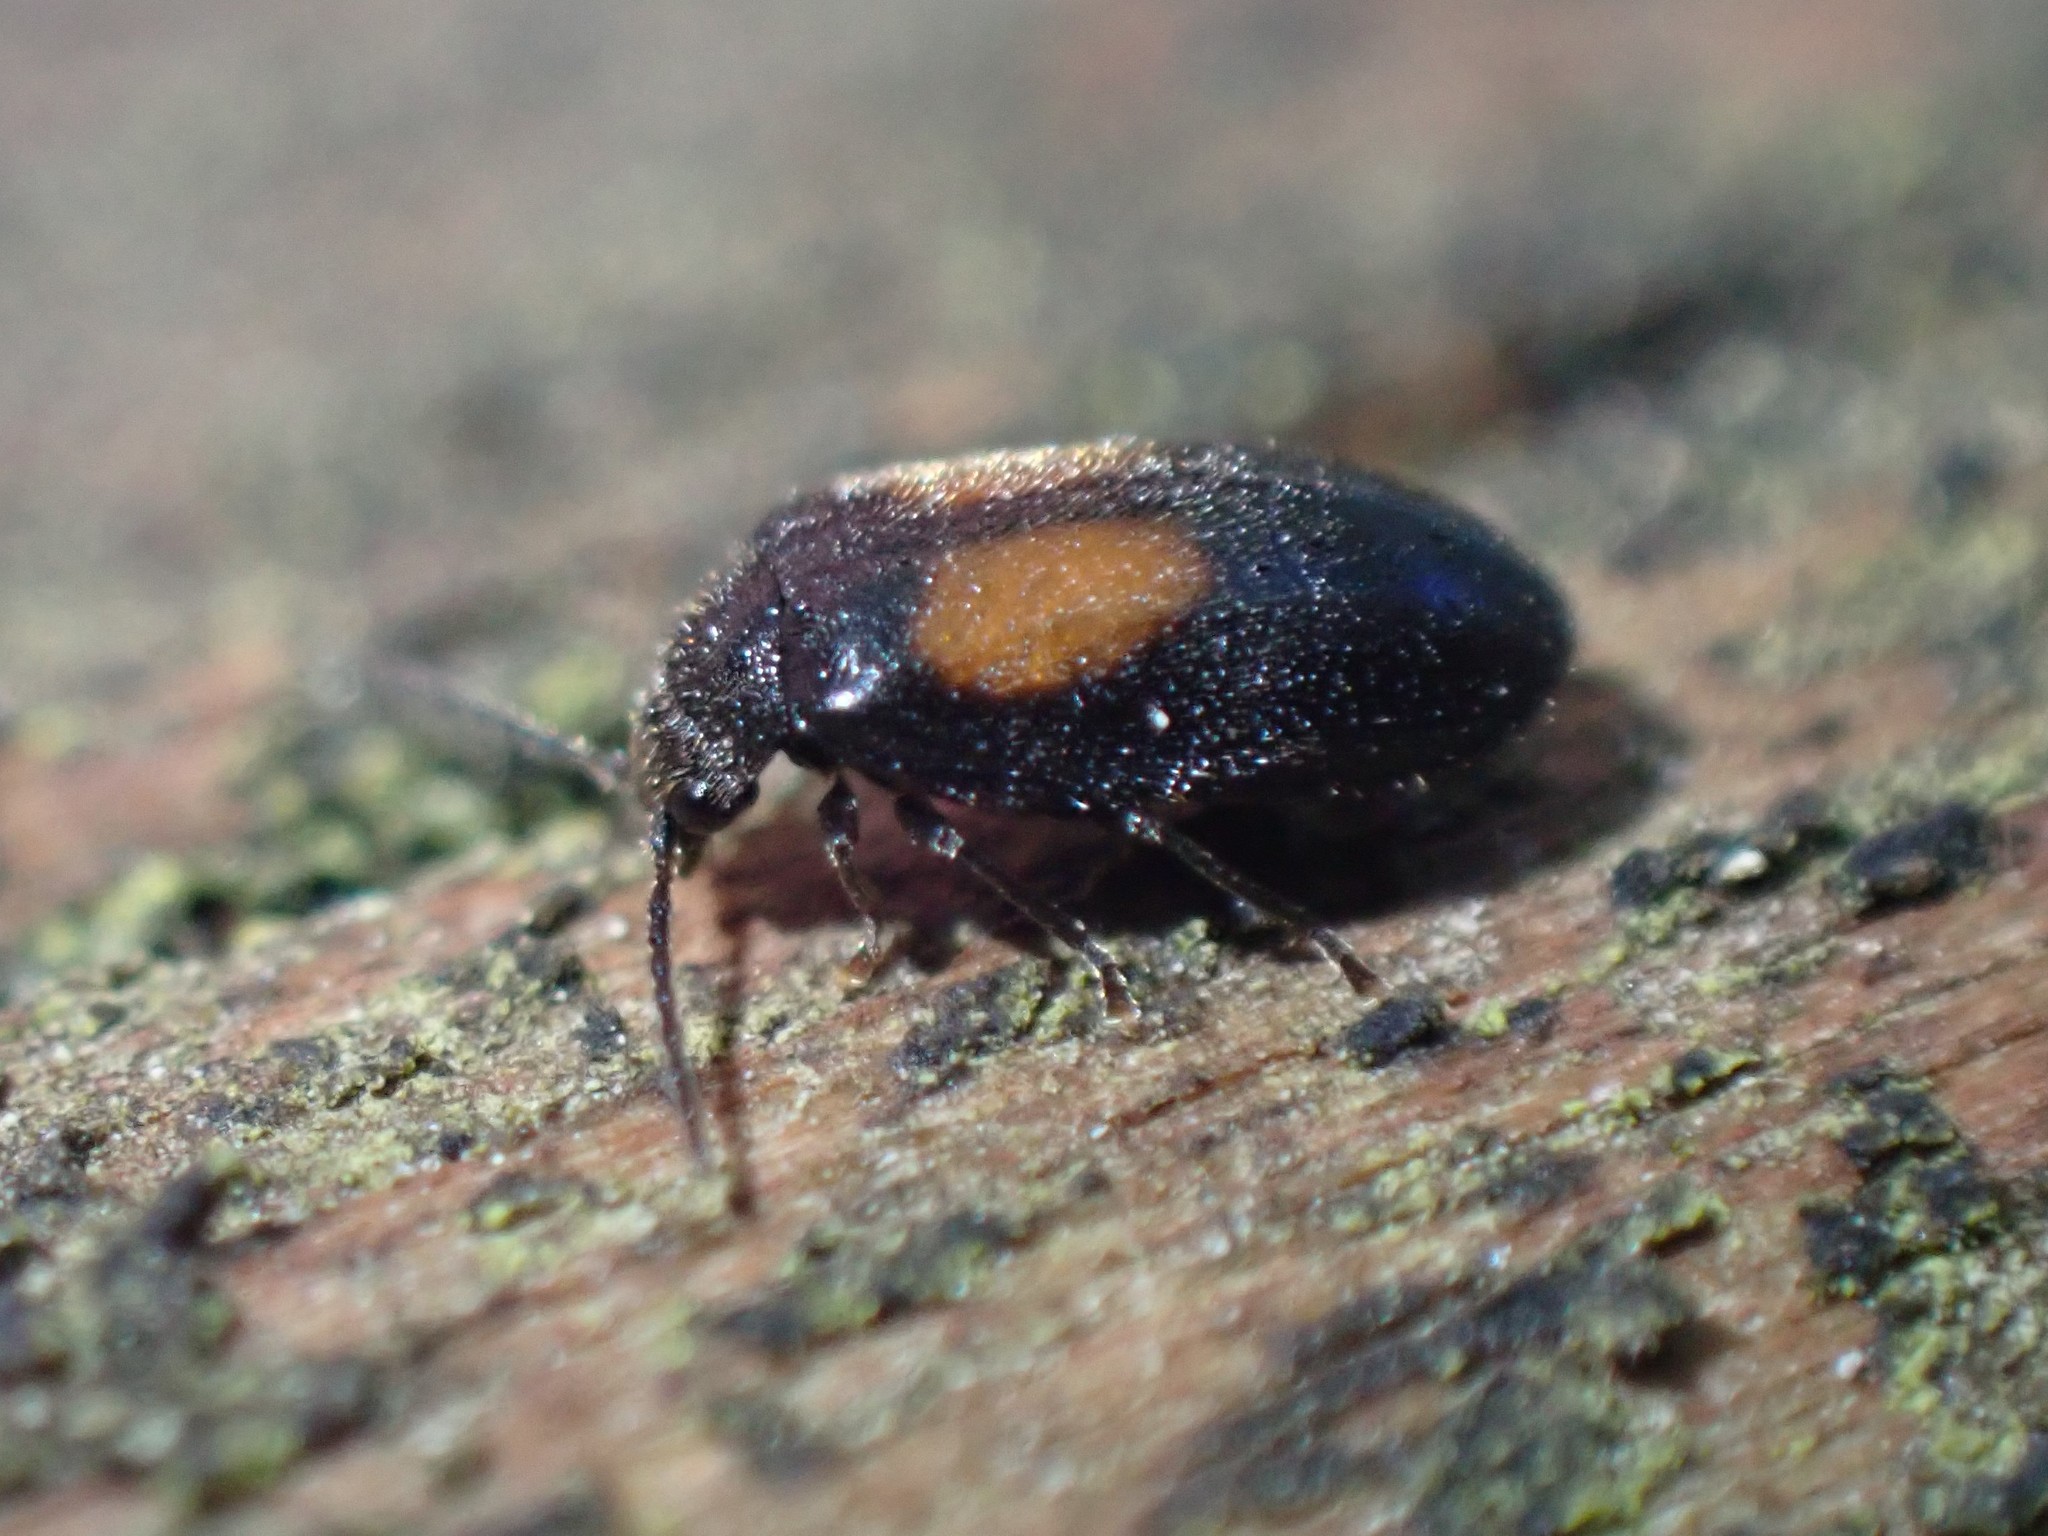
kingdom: Animalia
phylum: Arthropoda
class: Insecta
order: Coleoptera
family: Scirtidae
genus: Cyphon
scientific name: Cyphon concinnus
